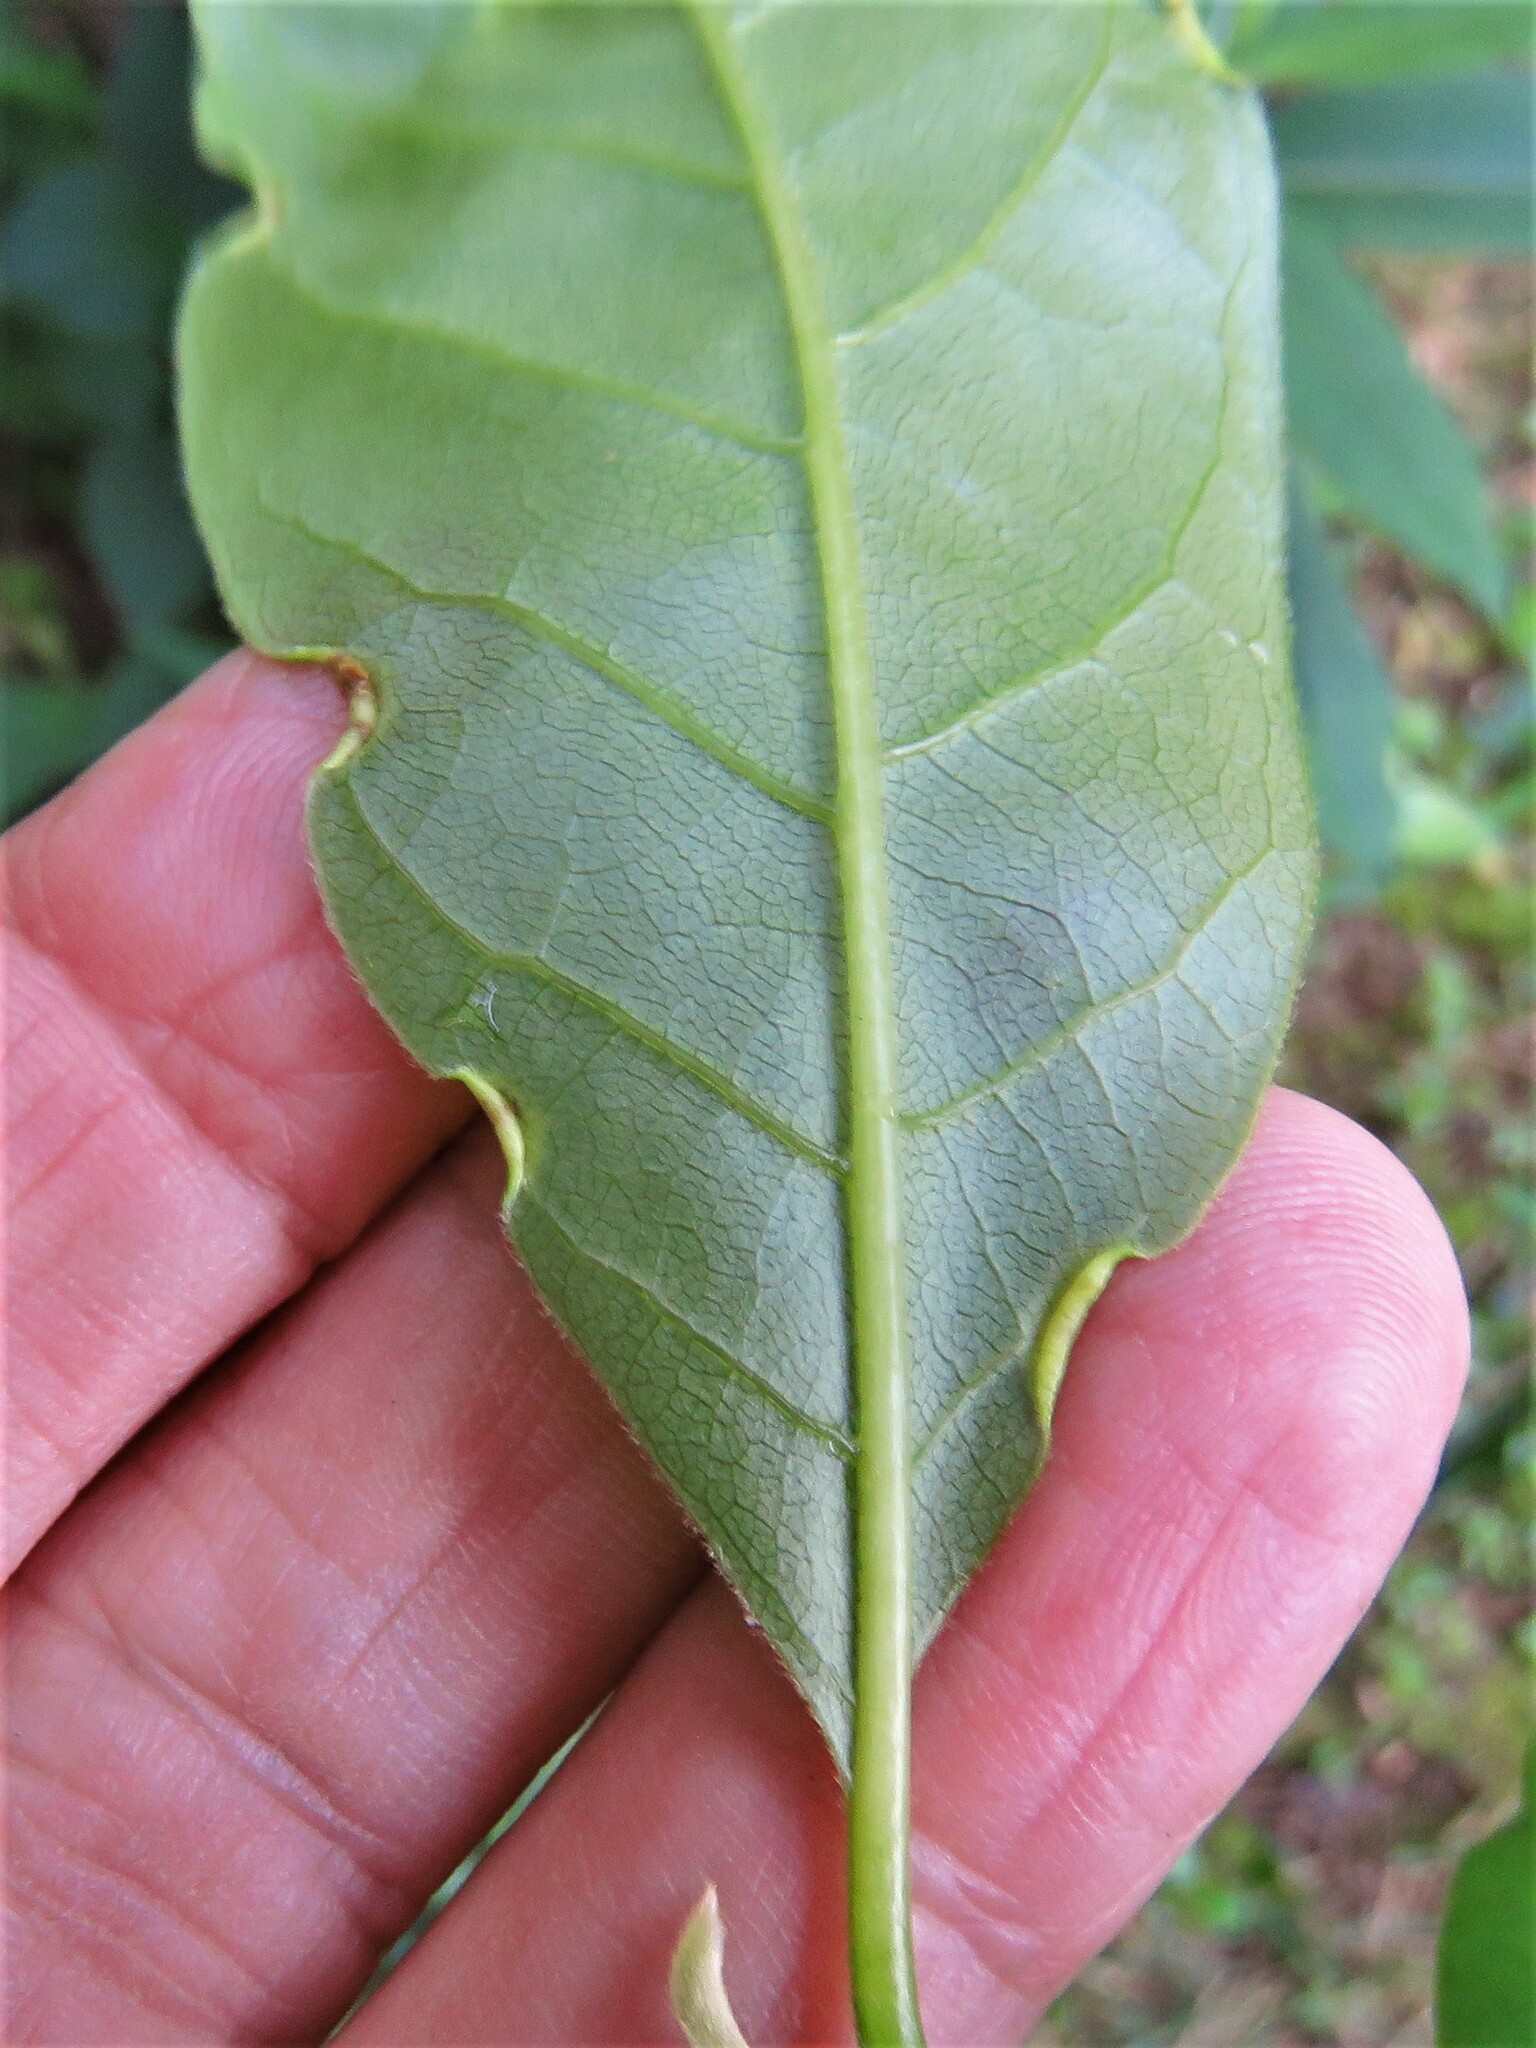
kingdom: Animalia
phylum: Arthropoda
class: Insecta
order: Hemiptera
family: Phylloxeridae
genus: Phylloxerina
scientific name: Phylloxerina nyssae
